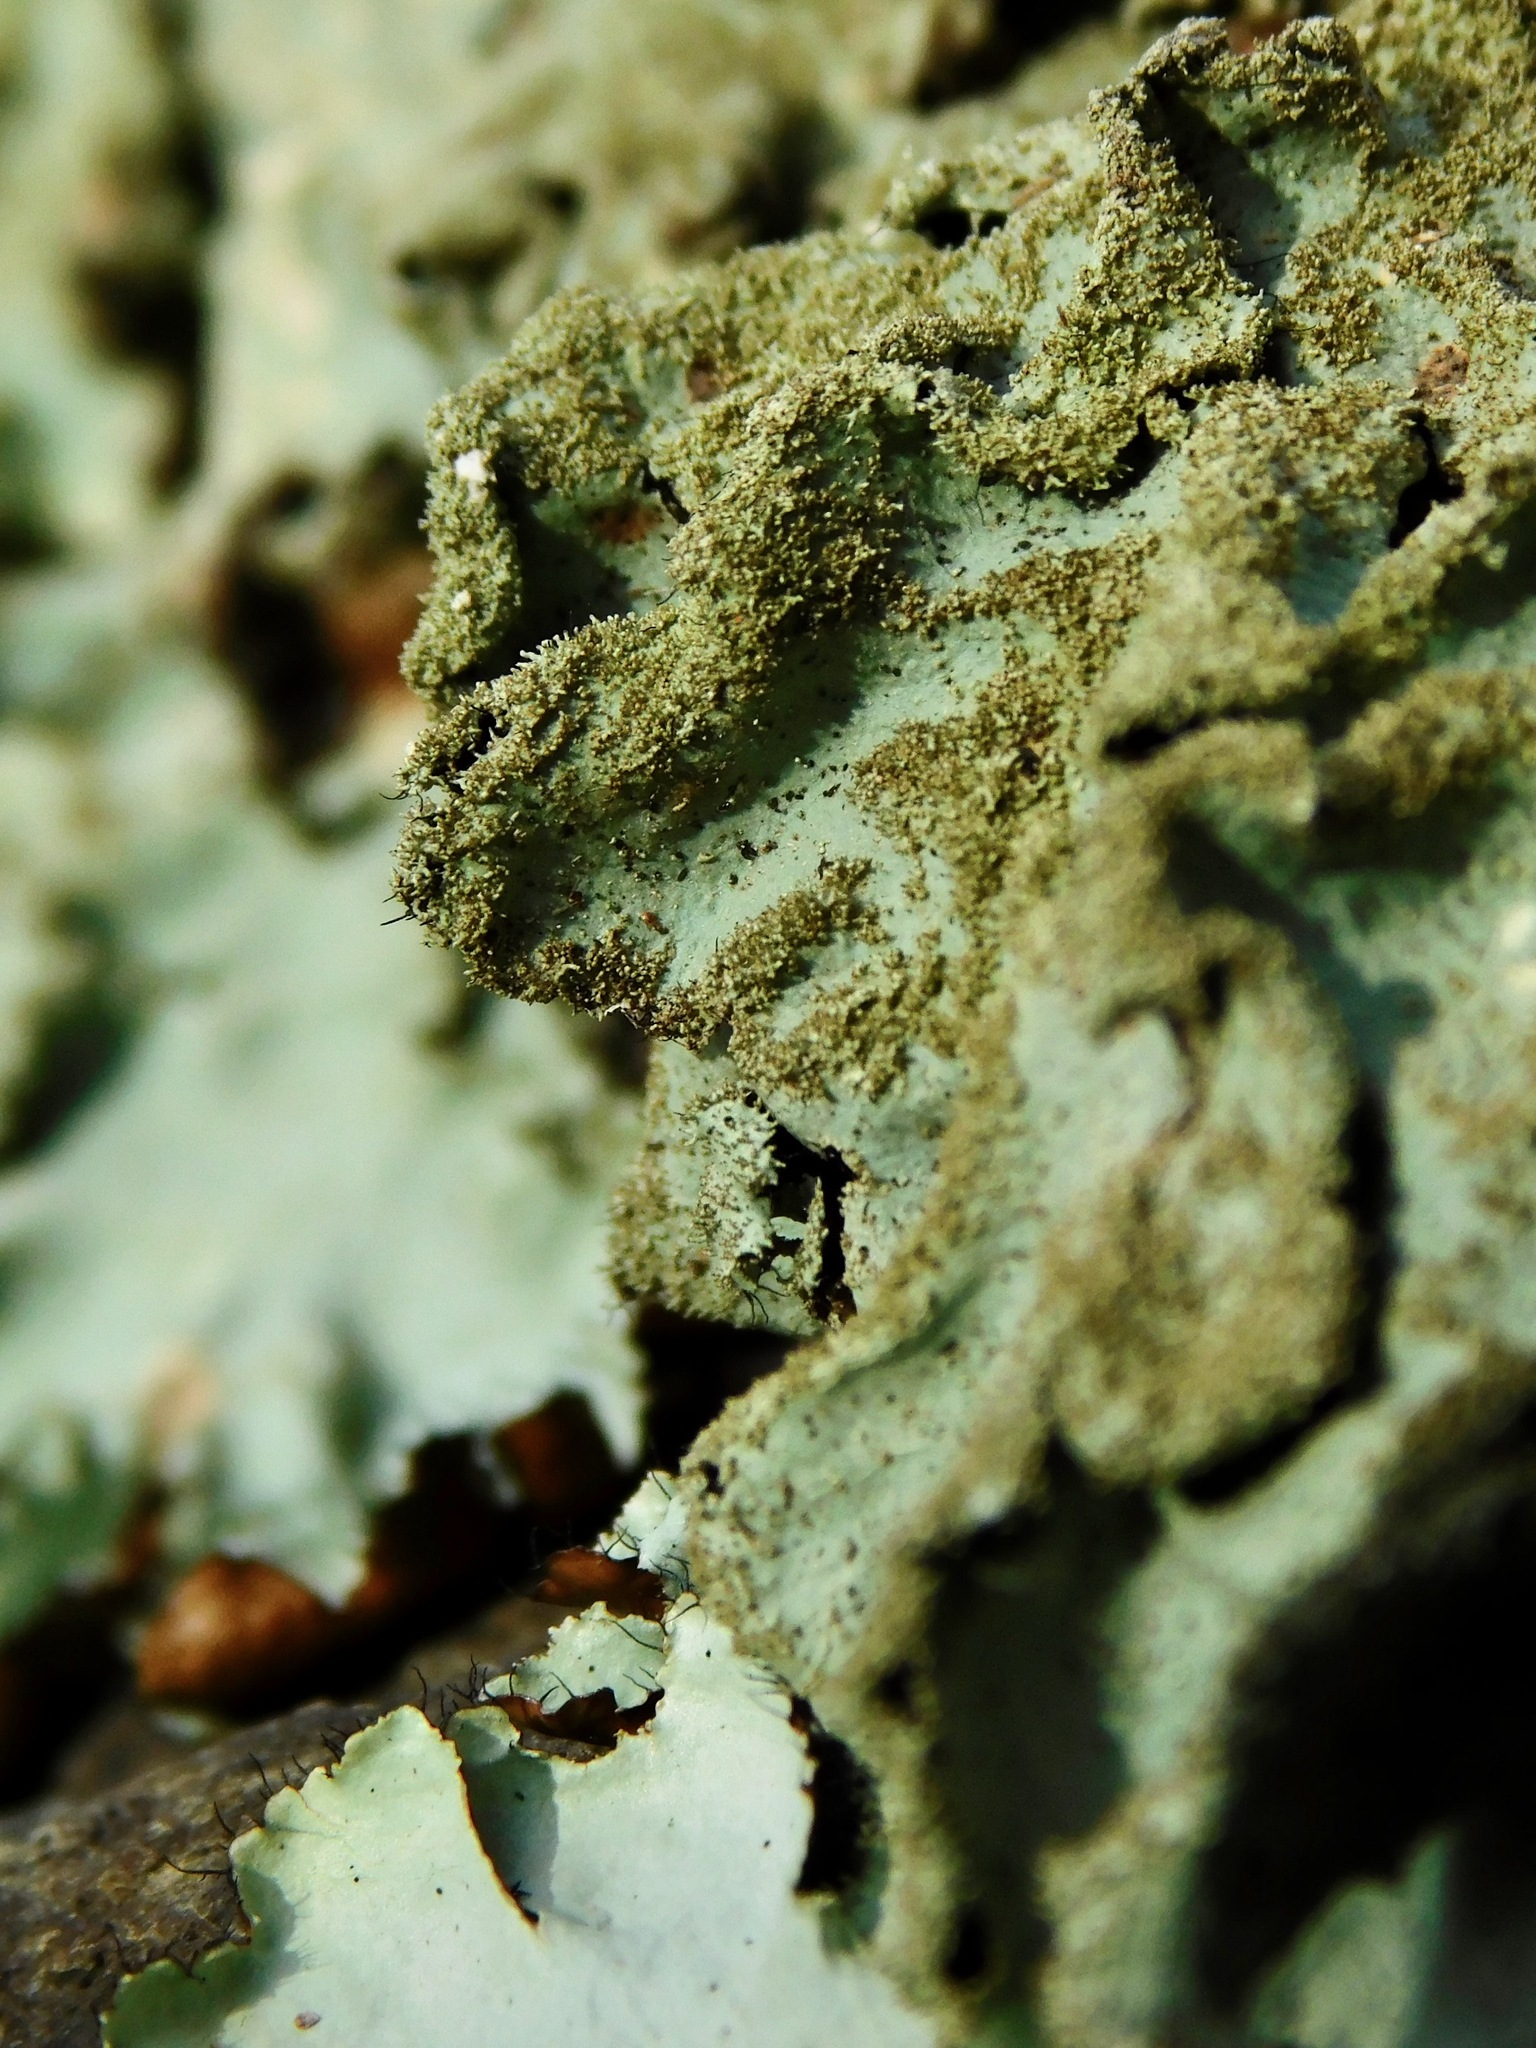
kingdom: Fungi
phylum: Ascomycota
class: Lecanoromycetes
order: Lecanorales
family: Parmeliaceae
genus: Parmotrema
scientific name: Parmotrema tinctorum
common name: Old gray ruffles
